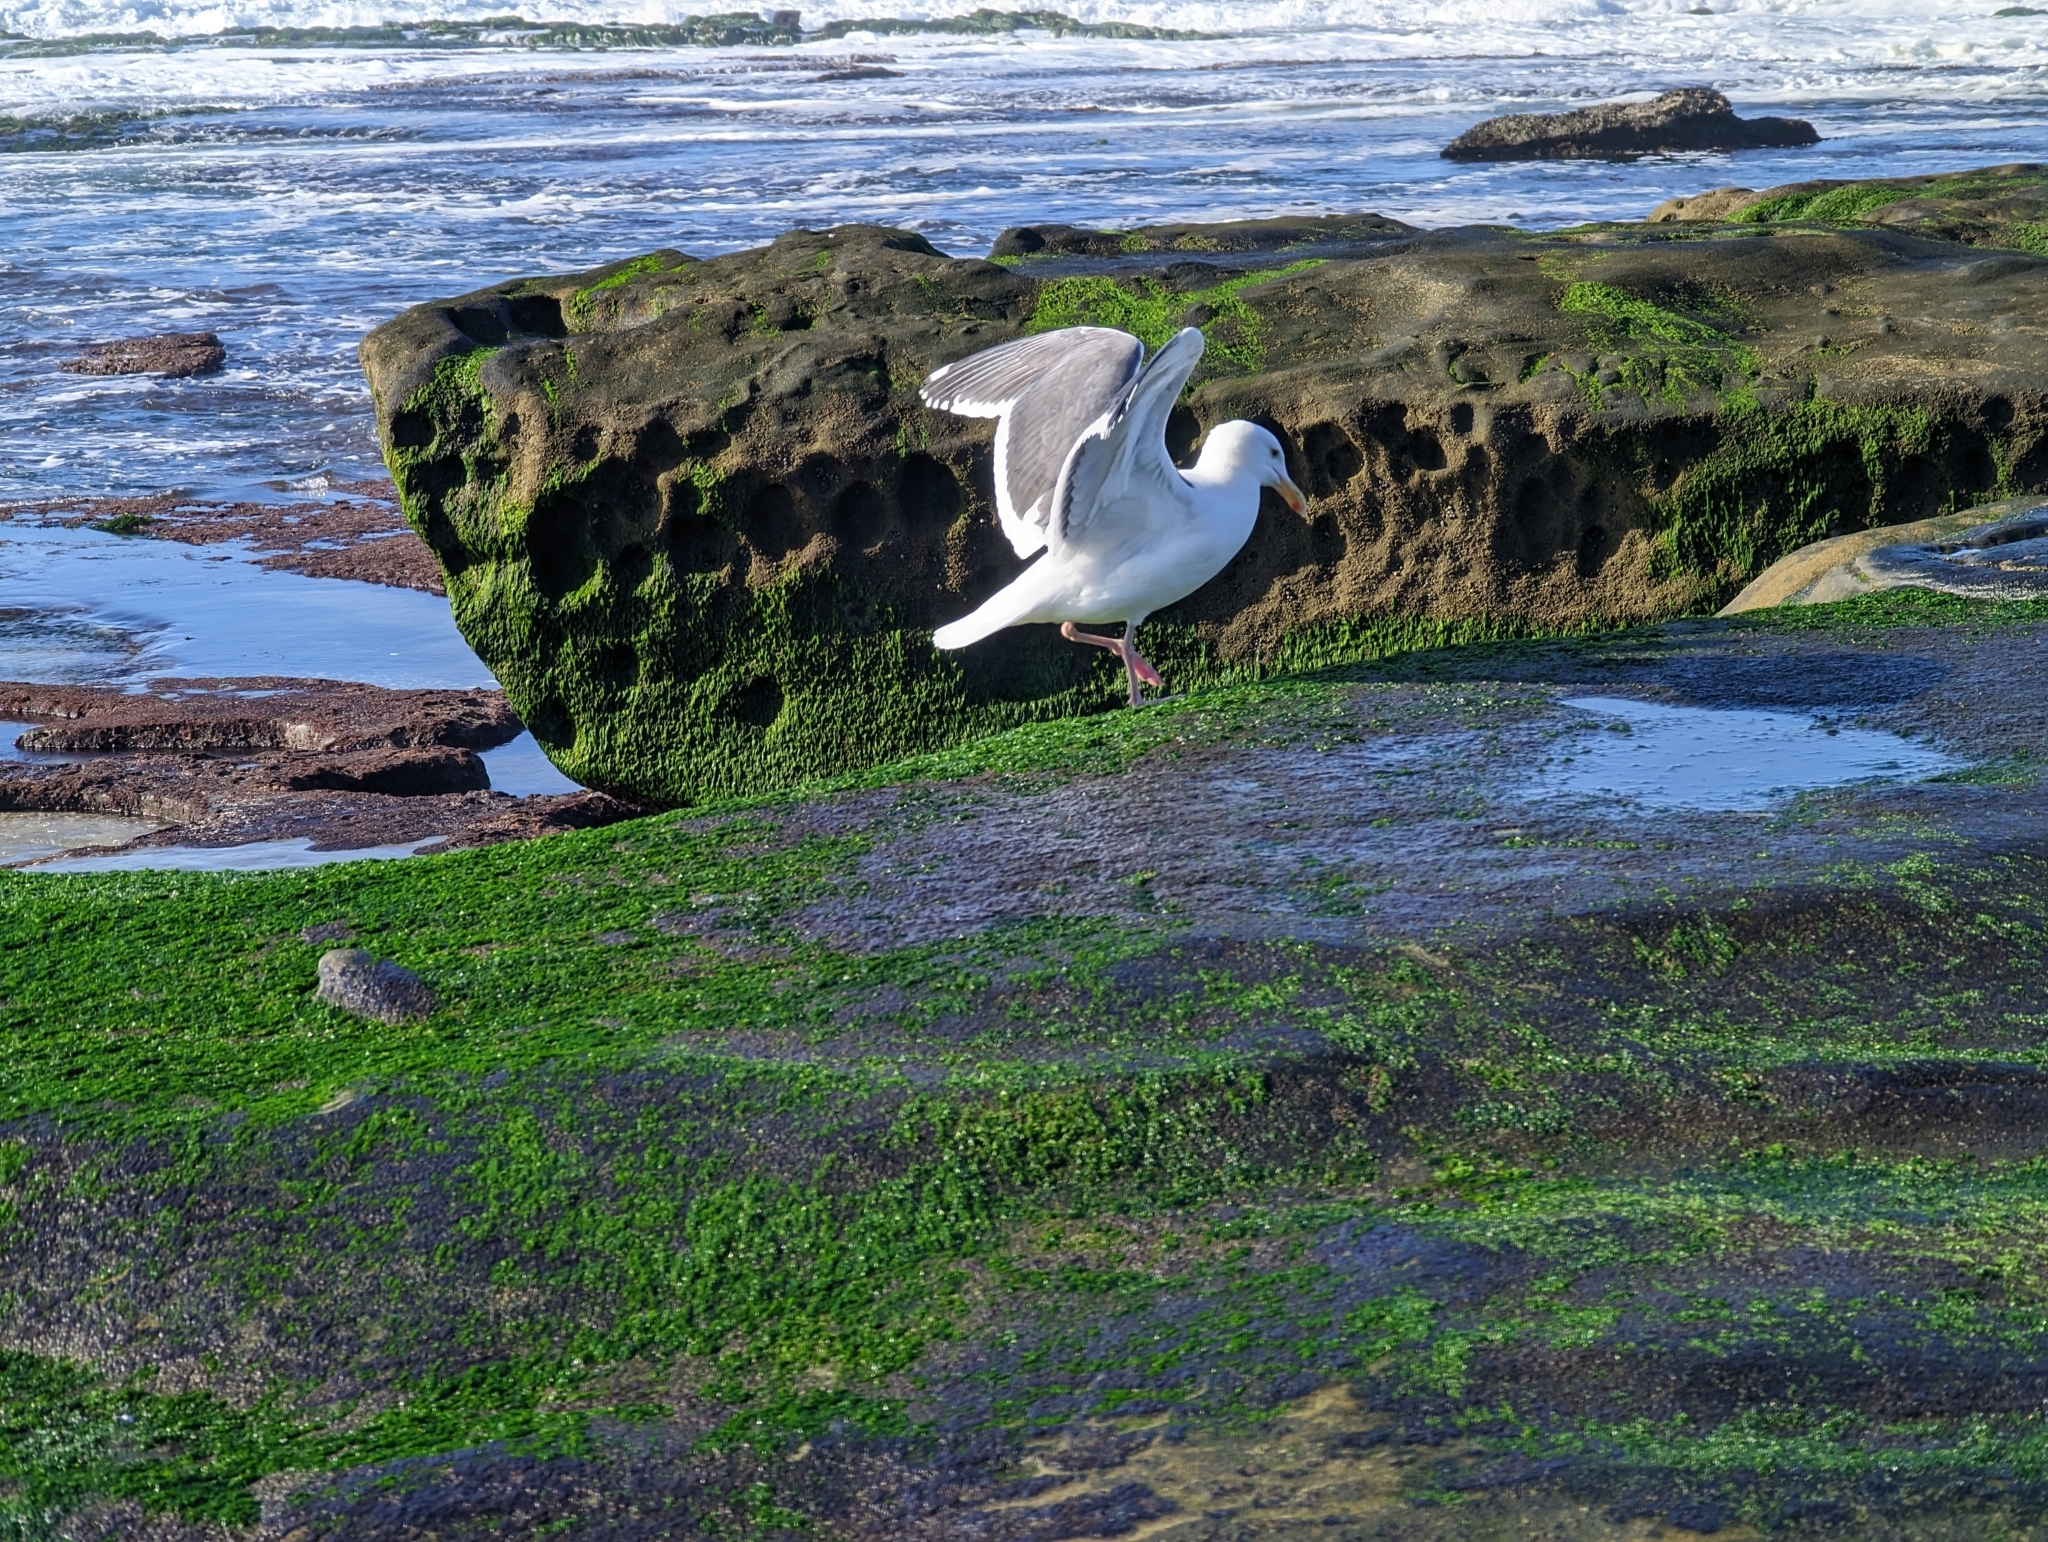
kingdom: Animalia
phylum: Chordata
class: Aves
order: Charadriiformes
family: Laridae
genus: Larus
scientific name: Larus occidentalis
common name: Western gull
